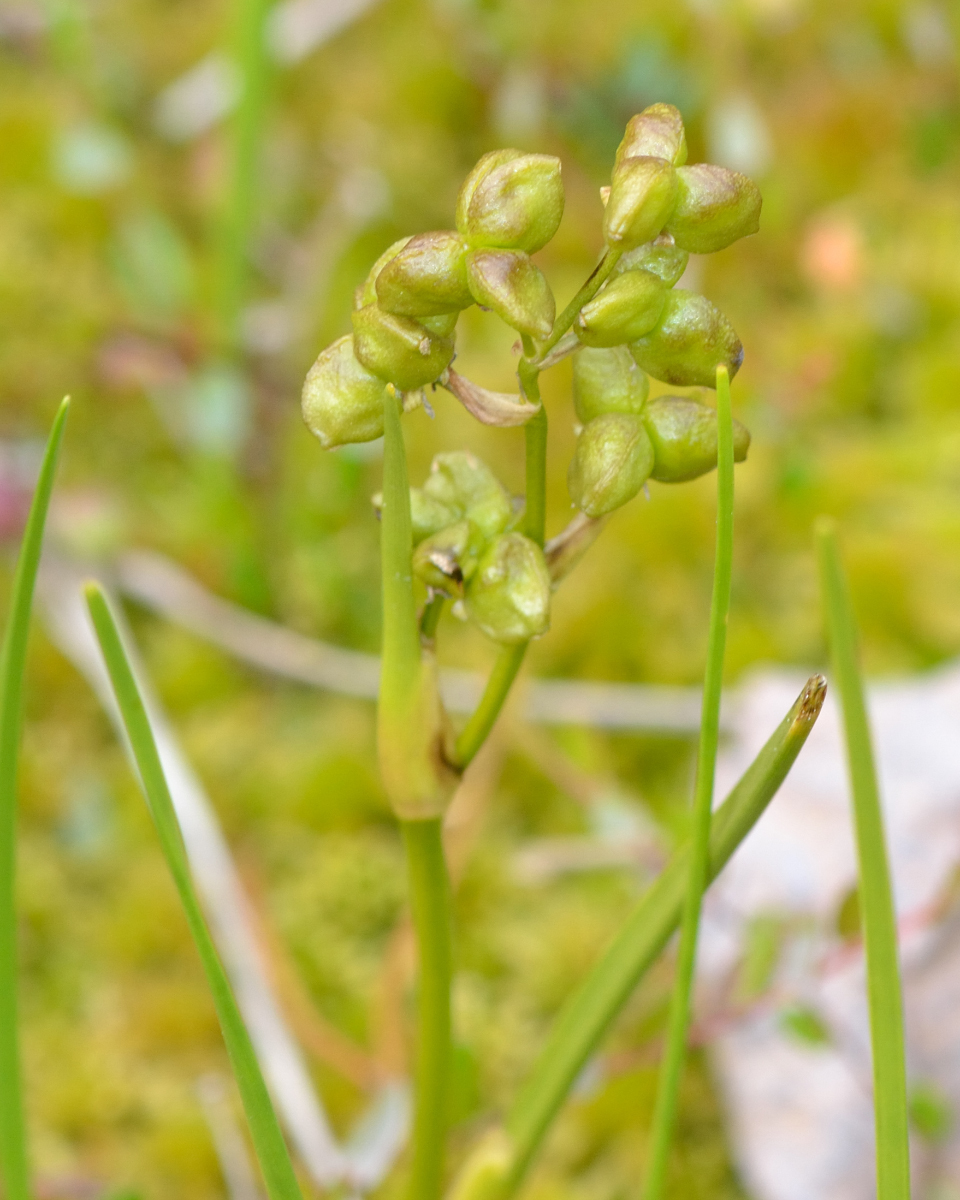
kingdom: Plantae
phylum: Tracheophyta
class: Liliopsida
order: Alismatales
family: Scheuchzeriaceae
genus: Scheuchzeria
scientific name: Scheuchzeria palustris
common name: Rannoch-rush
